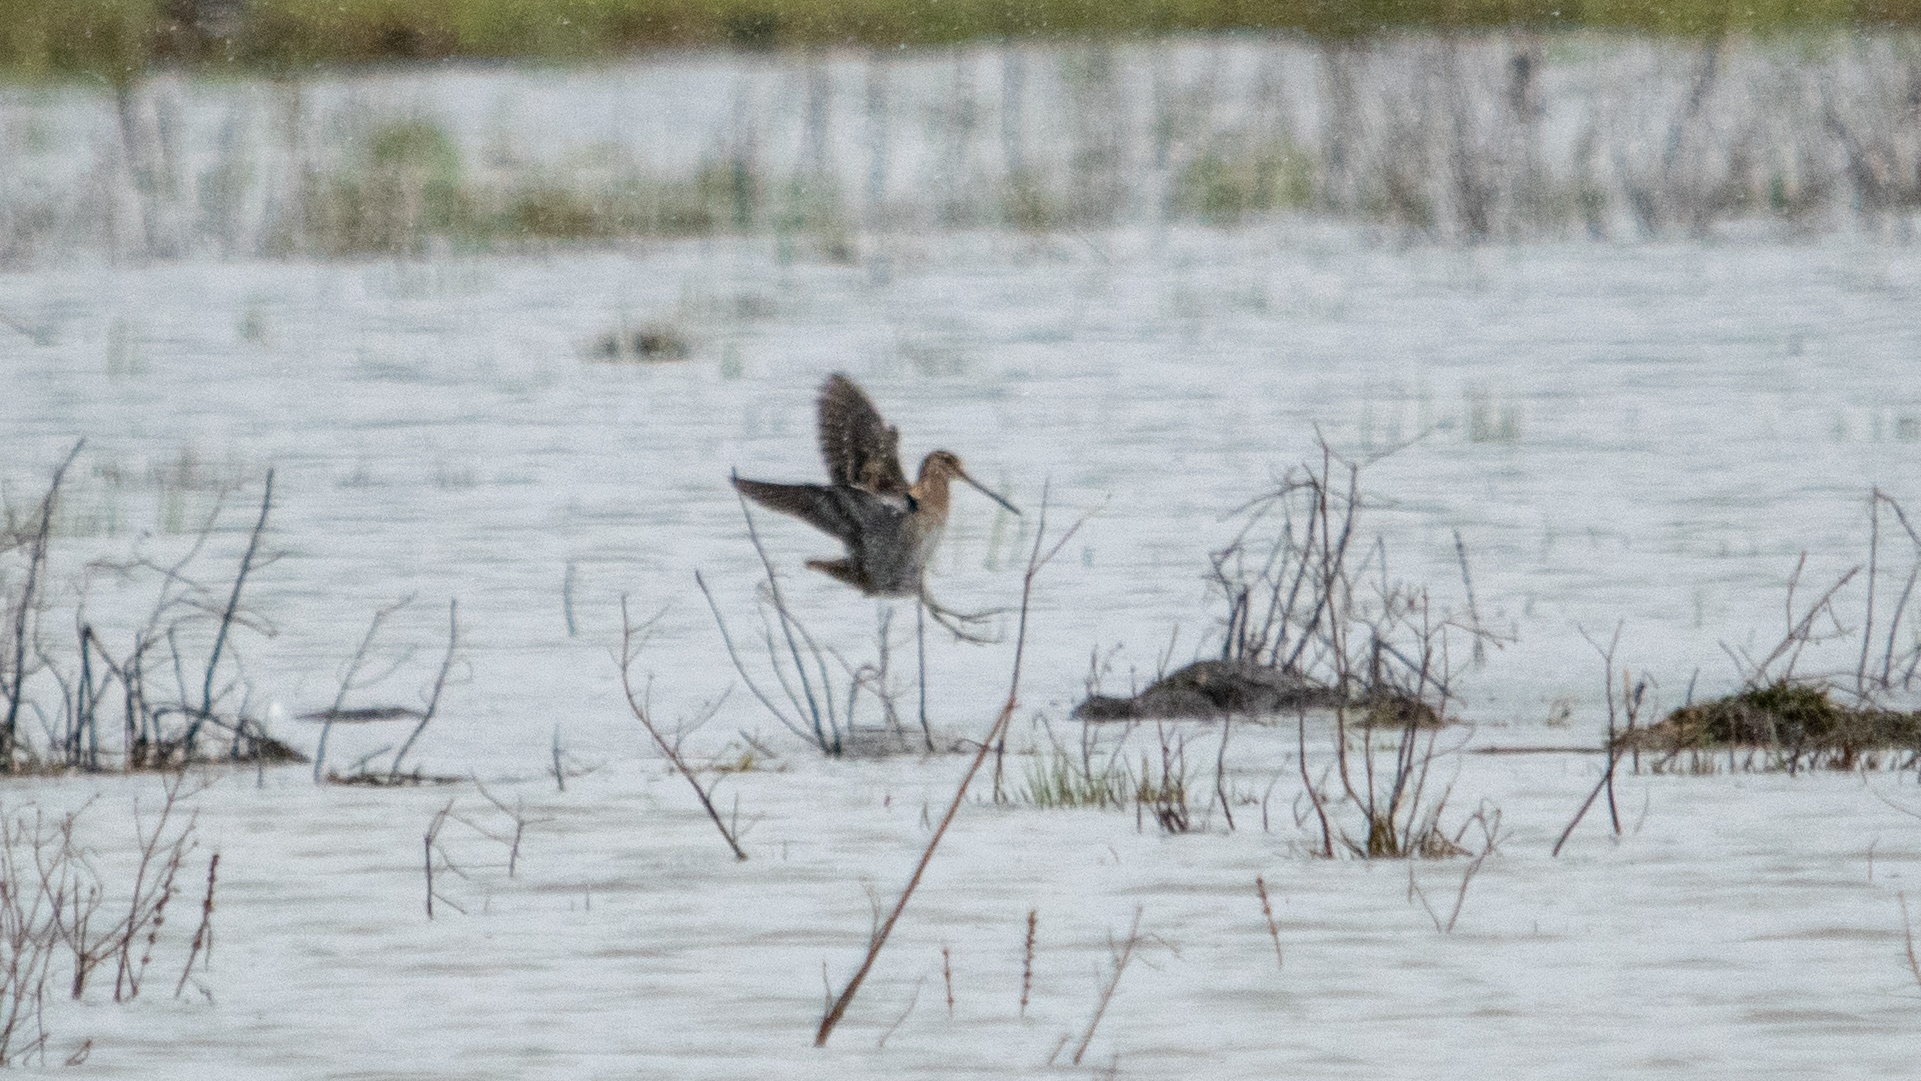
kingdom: Animalia
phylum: Chordata
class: Aves
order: Charadriiformes
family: Scolopacidae
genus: Gallinago
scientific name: Gallinago gallinago
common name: Common snipe
